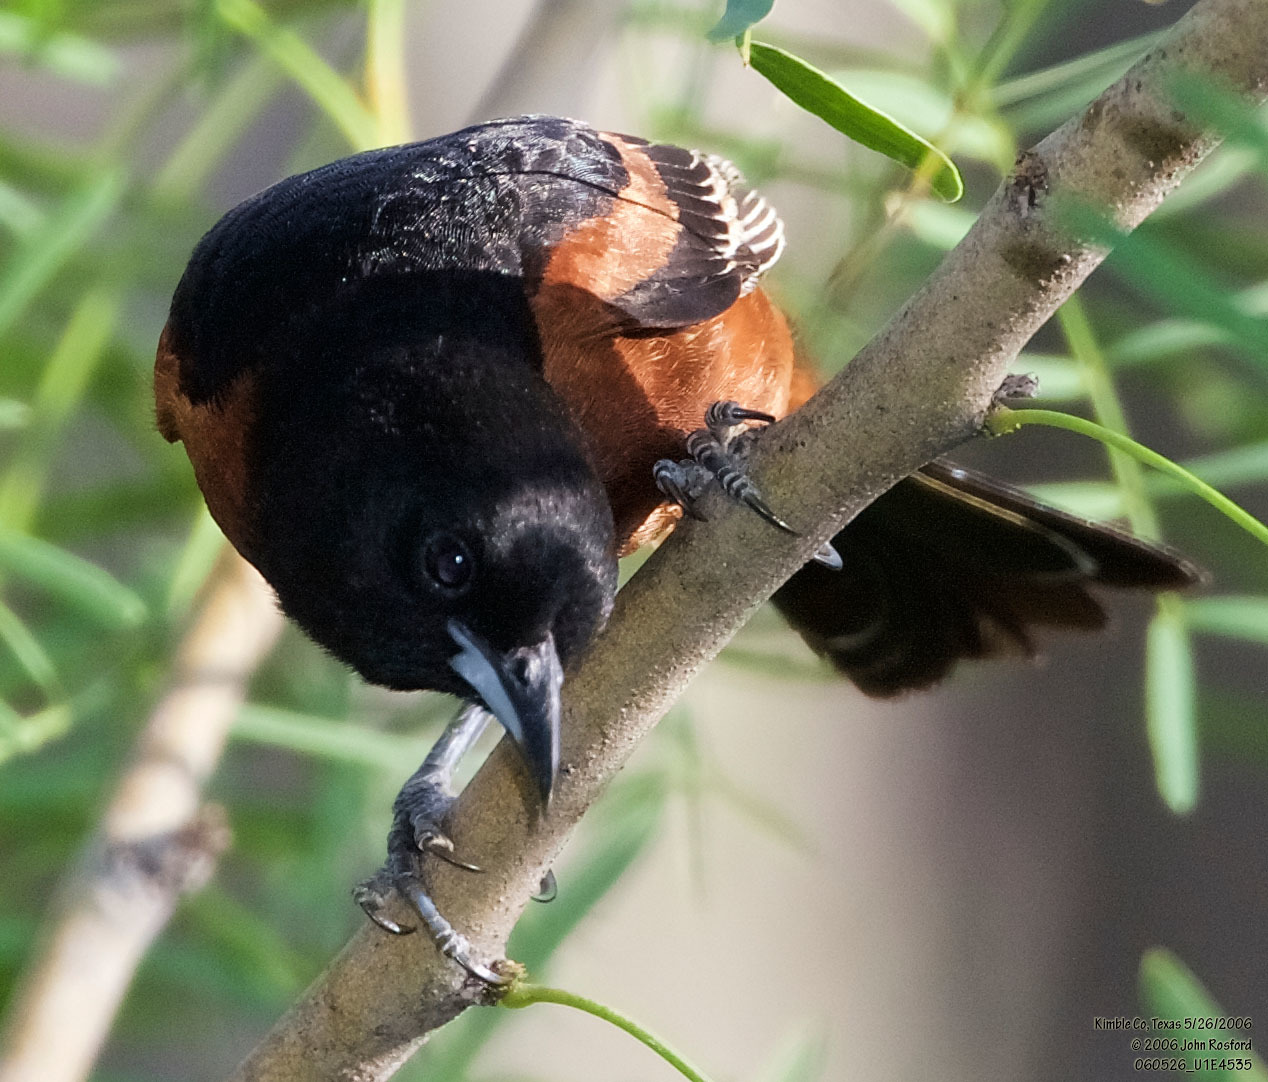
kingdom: Animalia
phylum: Chordata
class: Aves
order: Passeriformes
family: Icteridae
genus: Icterus
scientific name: Icterus spurius
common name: Orchard oriole
